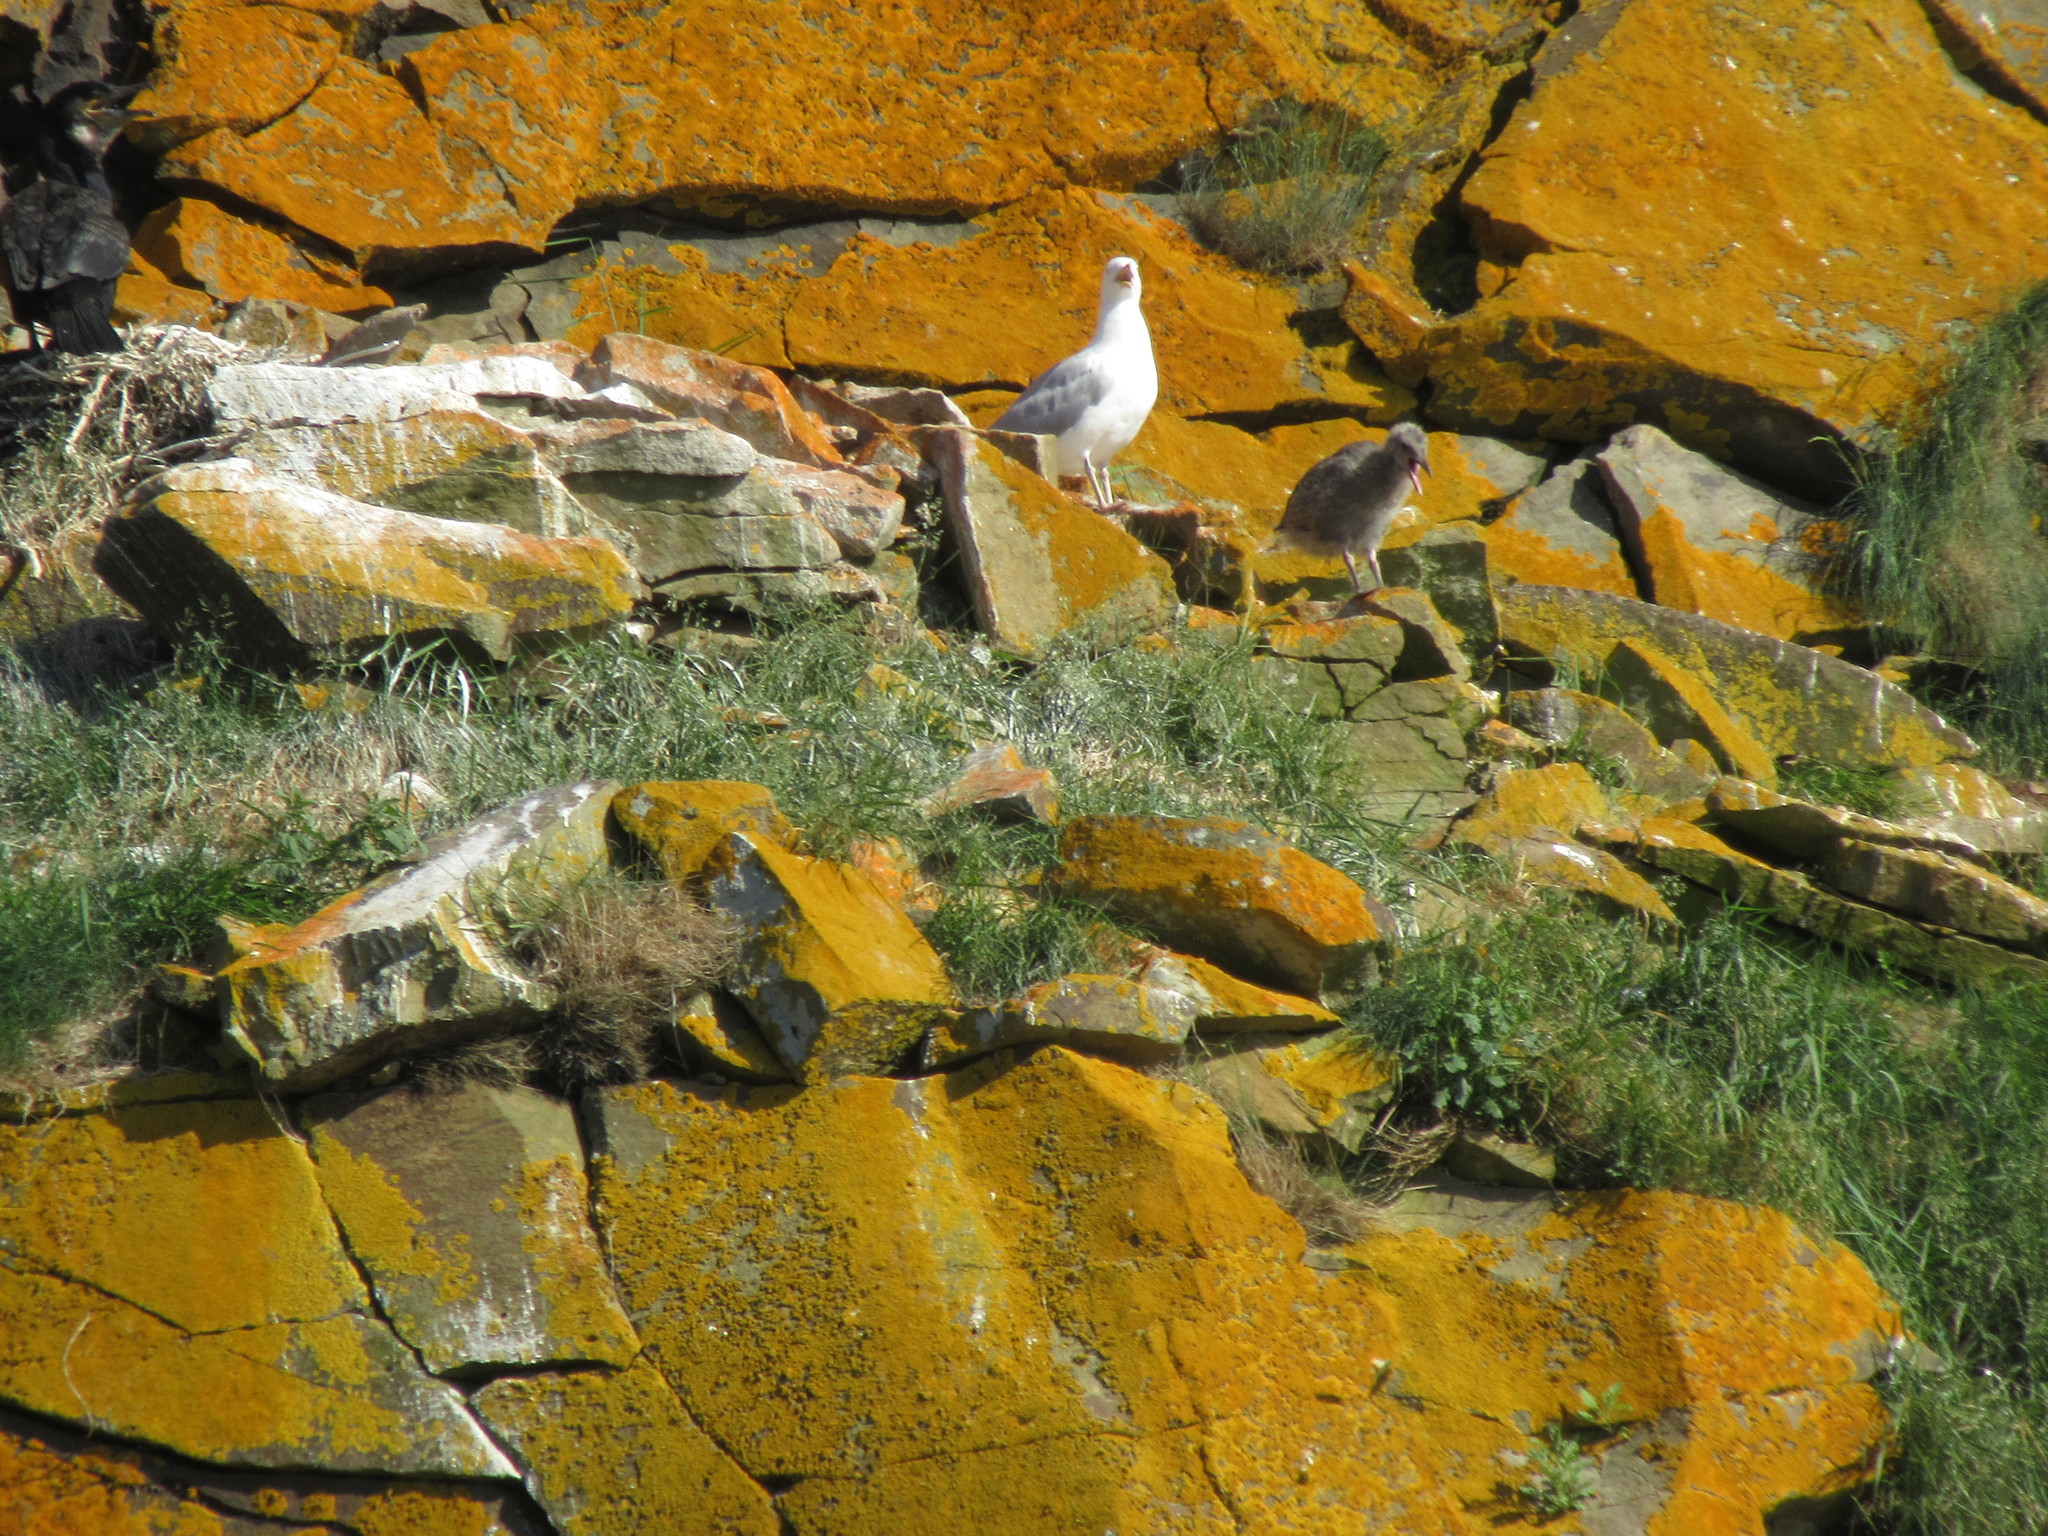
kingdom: Animalia
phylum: Chordata
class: Aves
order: Charadriiformes
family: Laridae
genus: Larus
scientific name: Larus argentatus
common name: Herring gull
